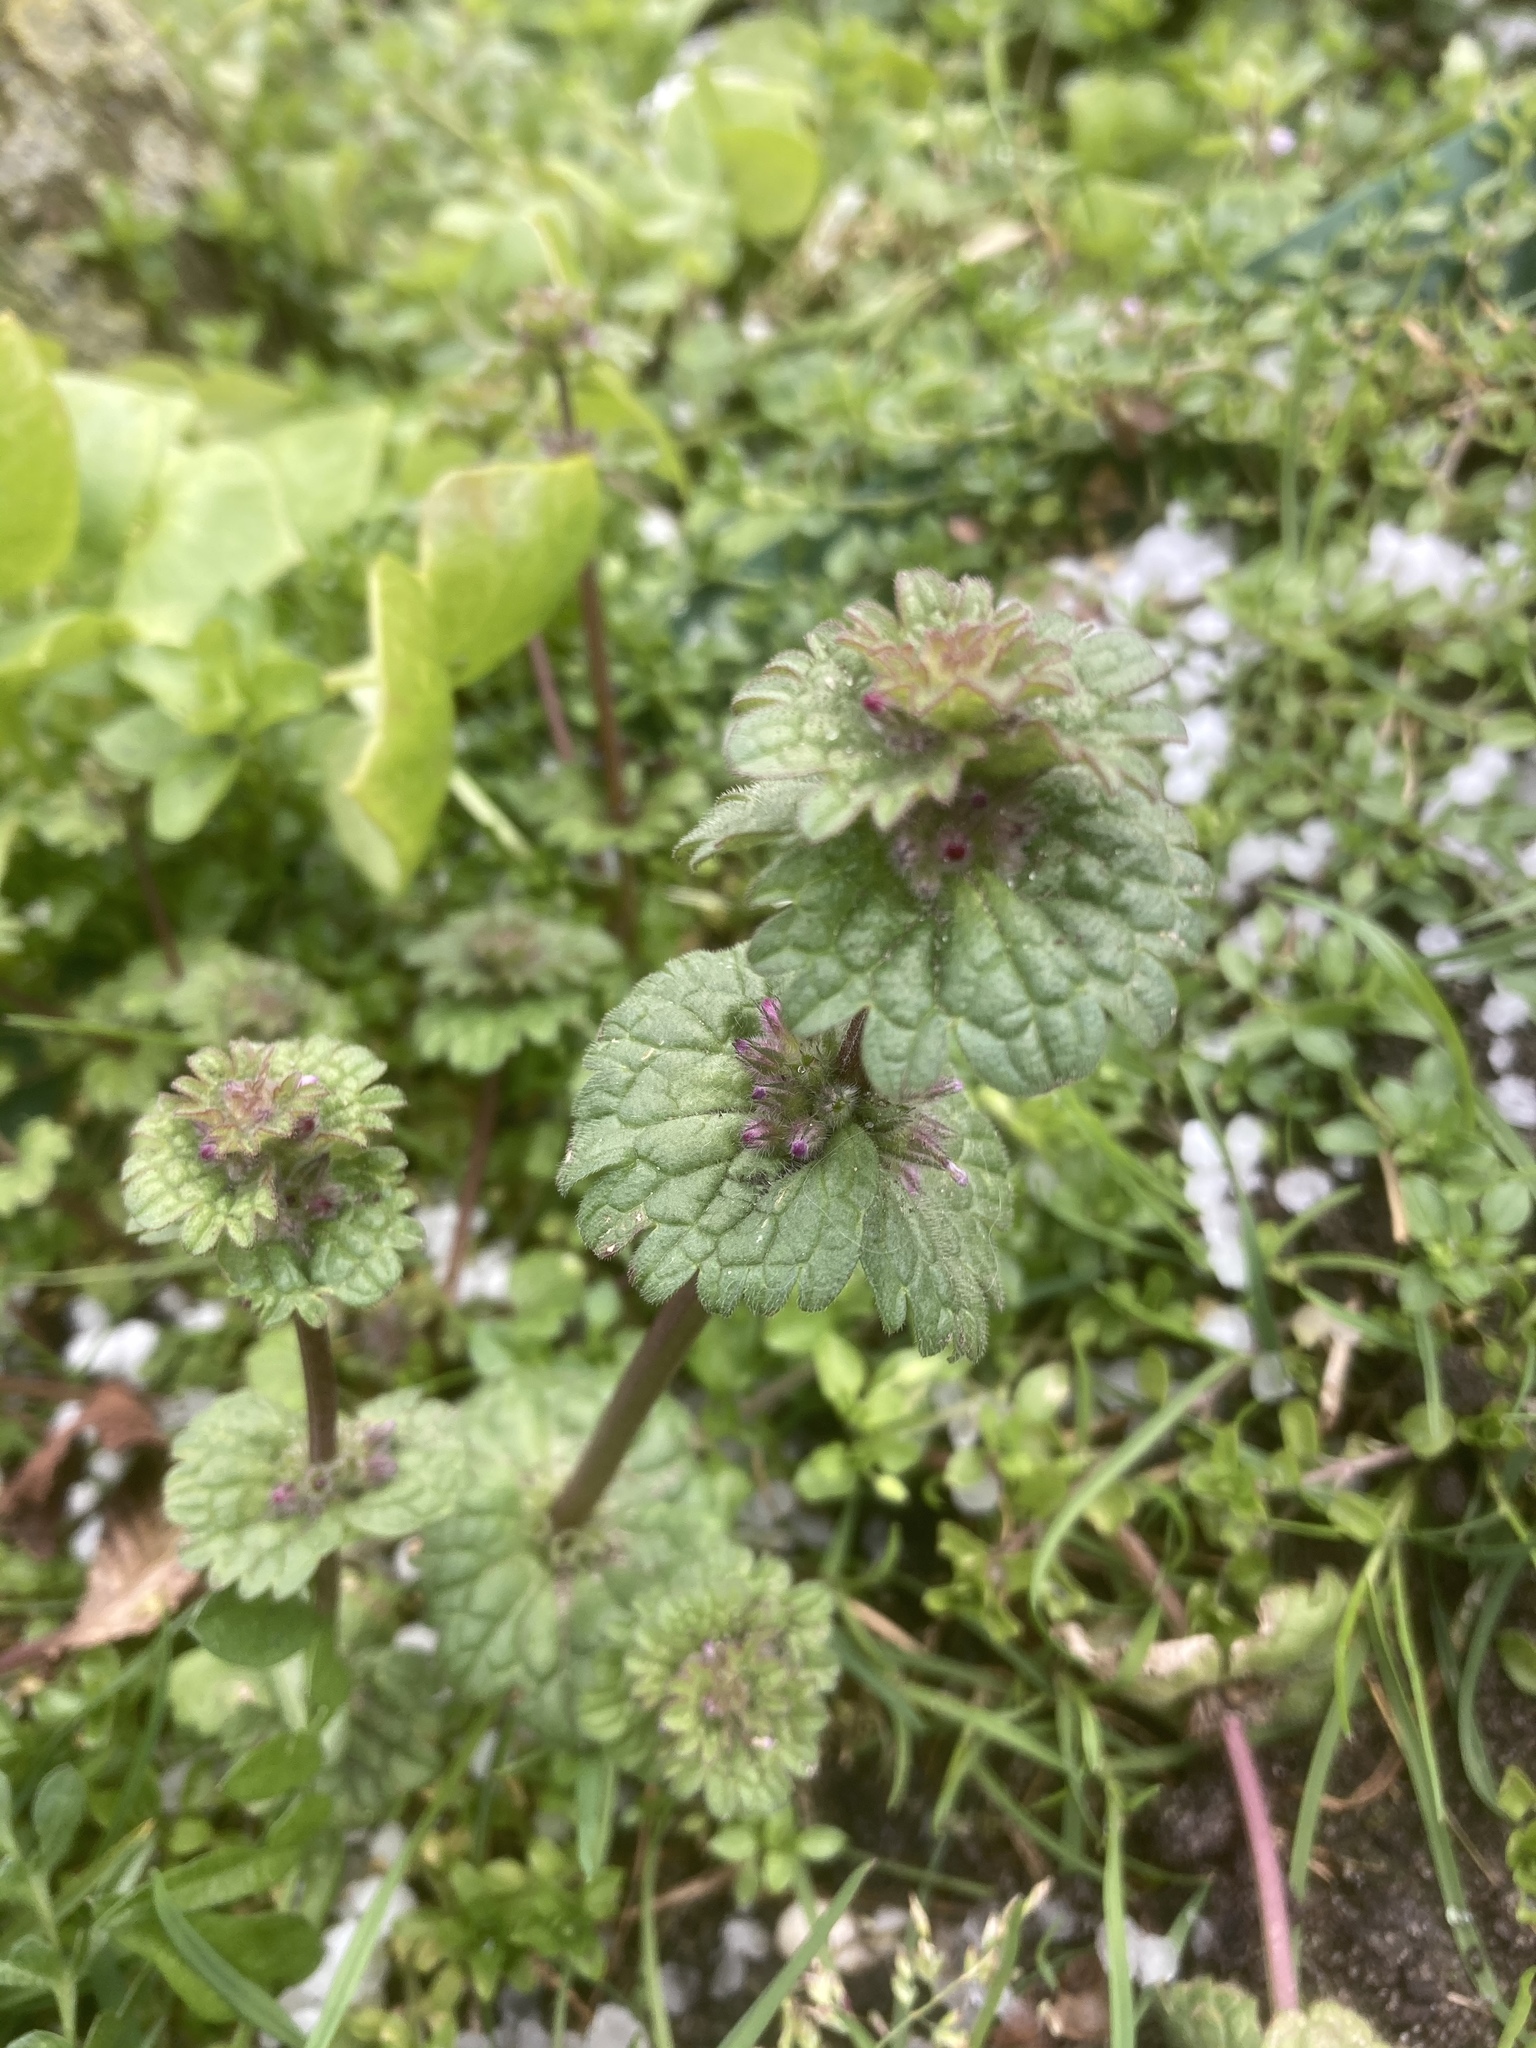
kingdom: Plantae
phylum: Tracheophyta
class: Magnoliopsida
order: Lamiales
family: Lamiaceae
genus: Lamium
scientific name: Lamium amplexicaule
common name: Henbit dead-nettle
